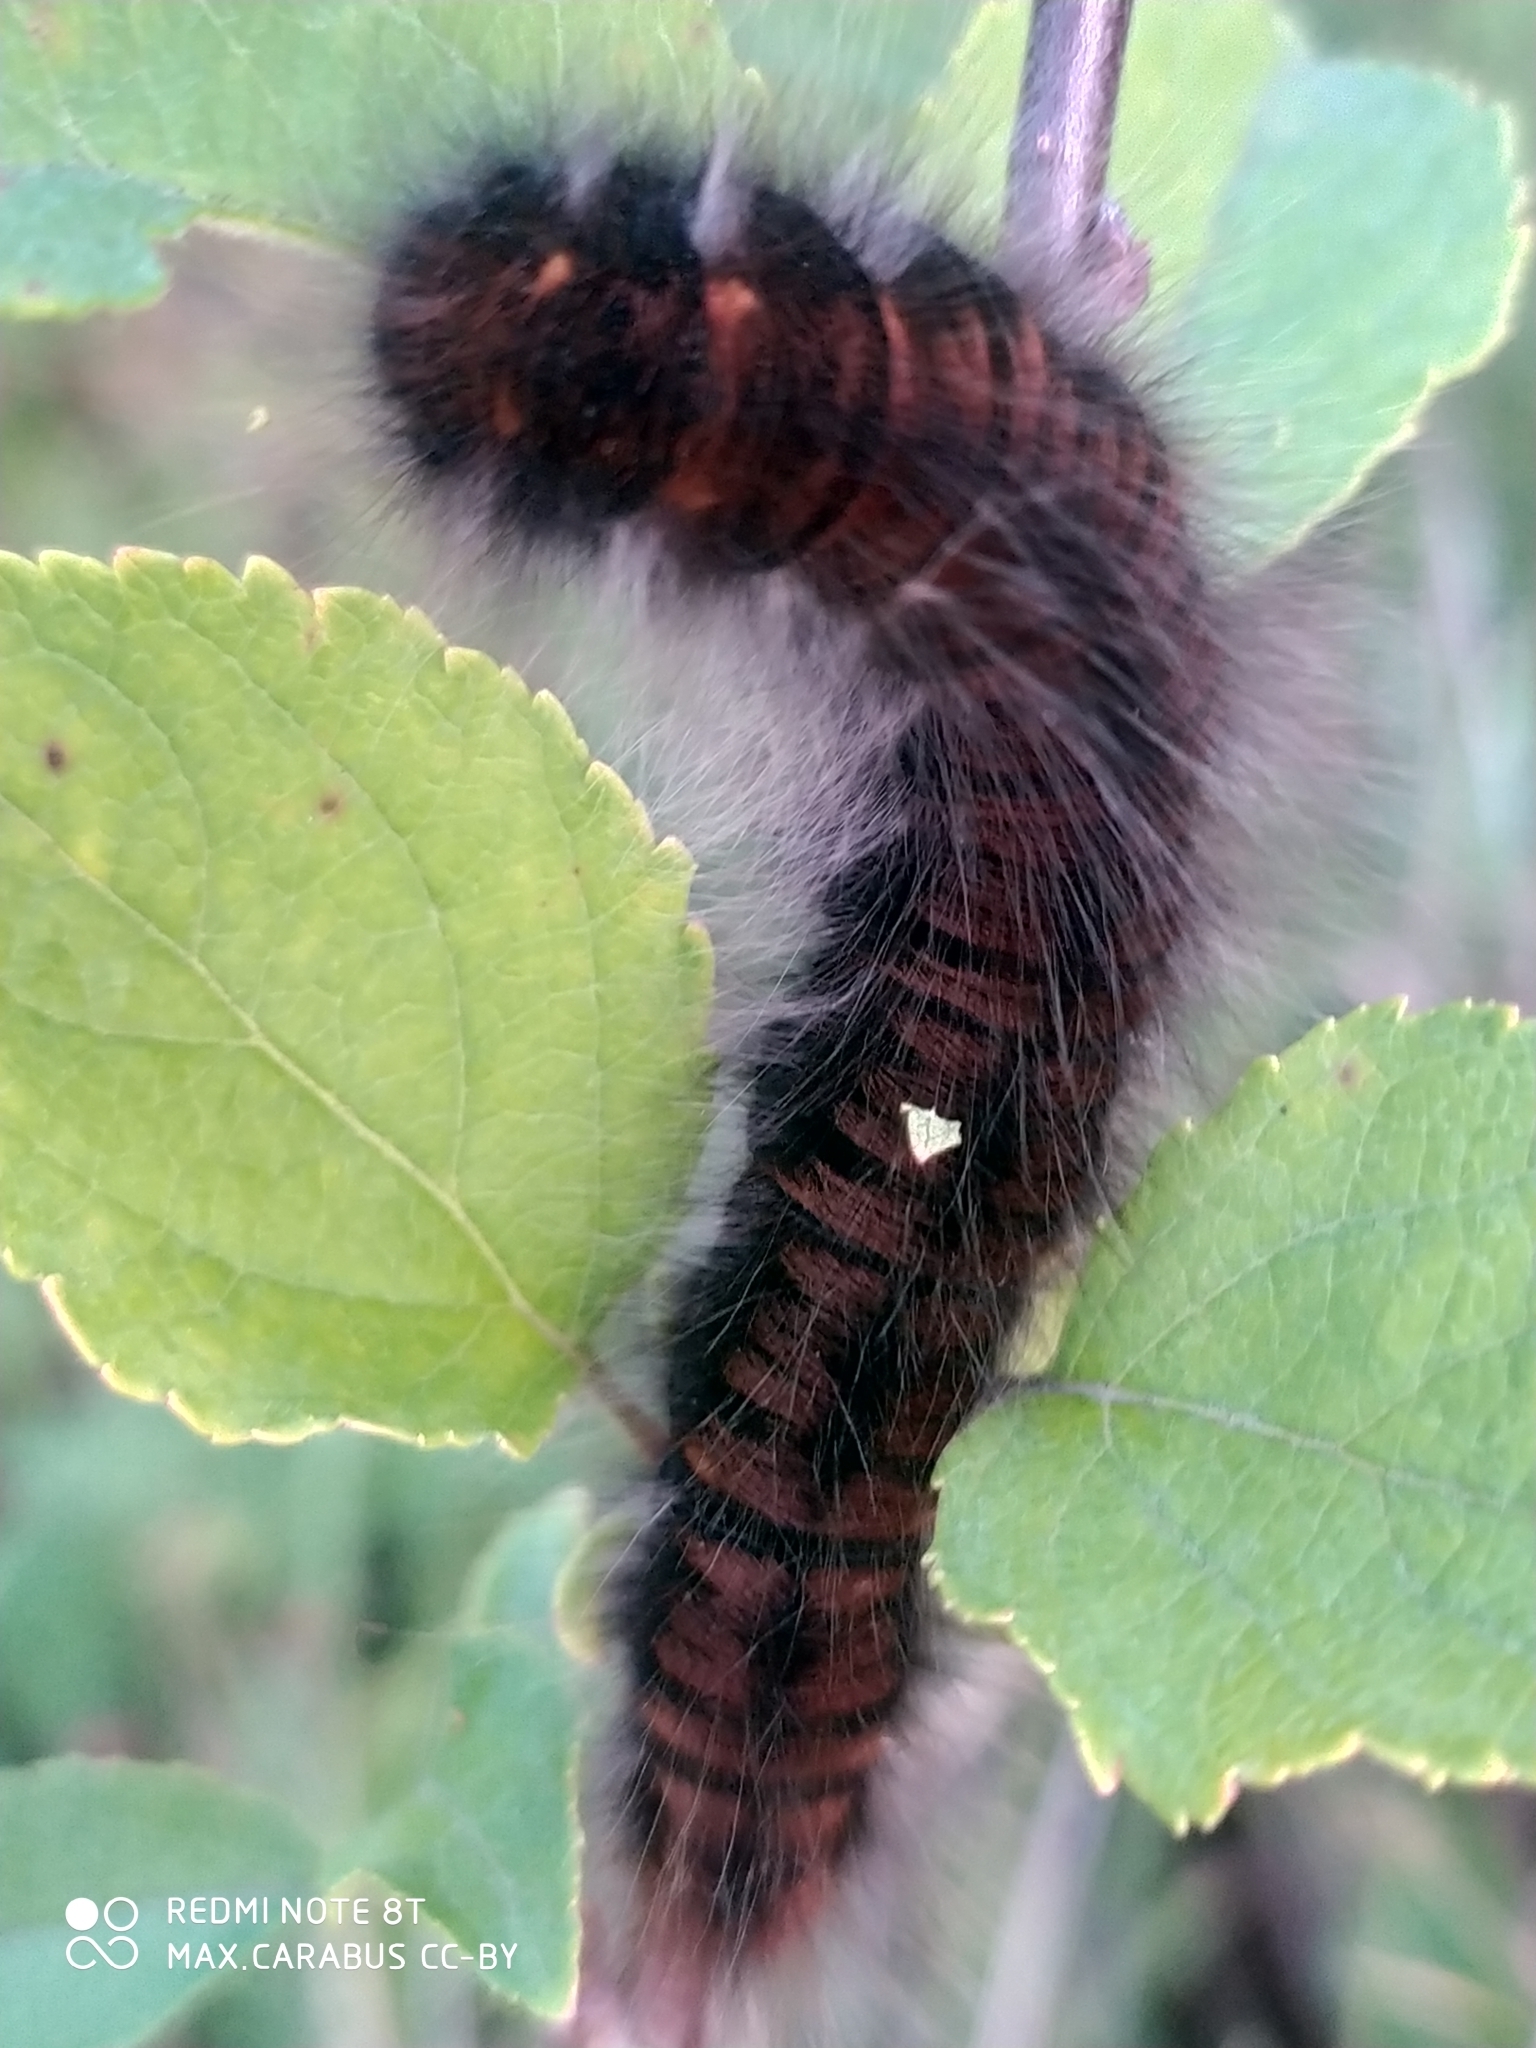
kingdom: Animalia
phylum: Arthropoda
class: Insecta
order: Lepidoptera
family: Lasiocampidae
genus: Macrothylacia
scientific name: Macrothylacia rubi
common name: Fox moth
